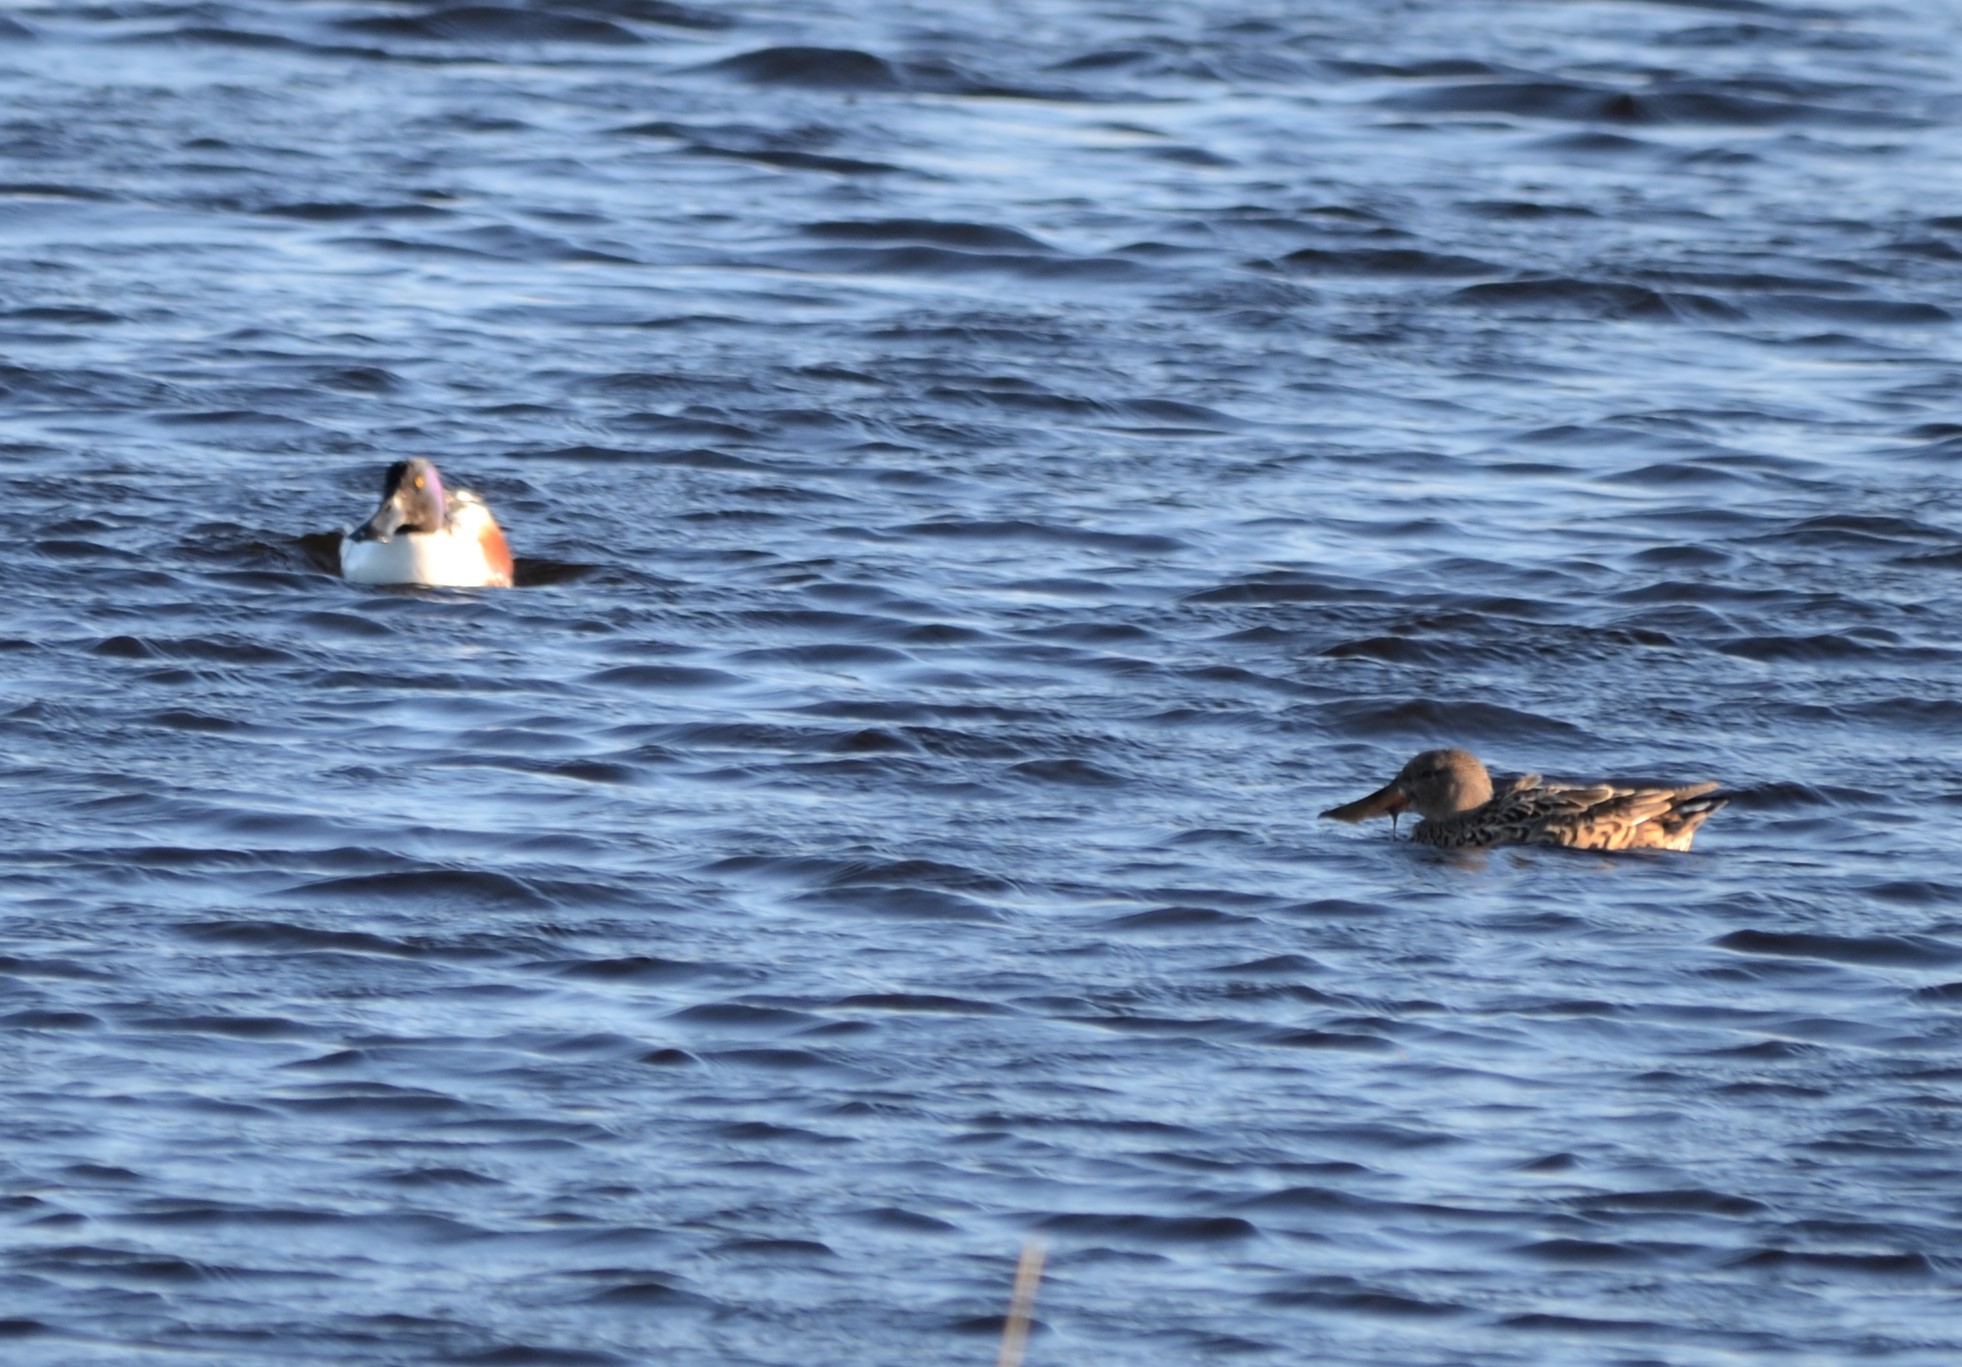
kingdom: Animalia
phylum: Chordata
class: Aves
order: Anseriformes
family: Anatidae
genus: Spatula
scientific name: Spatula clypeata
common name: Northern shoveler
